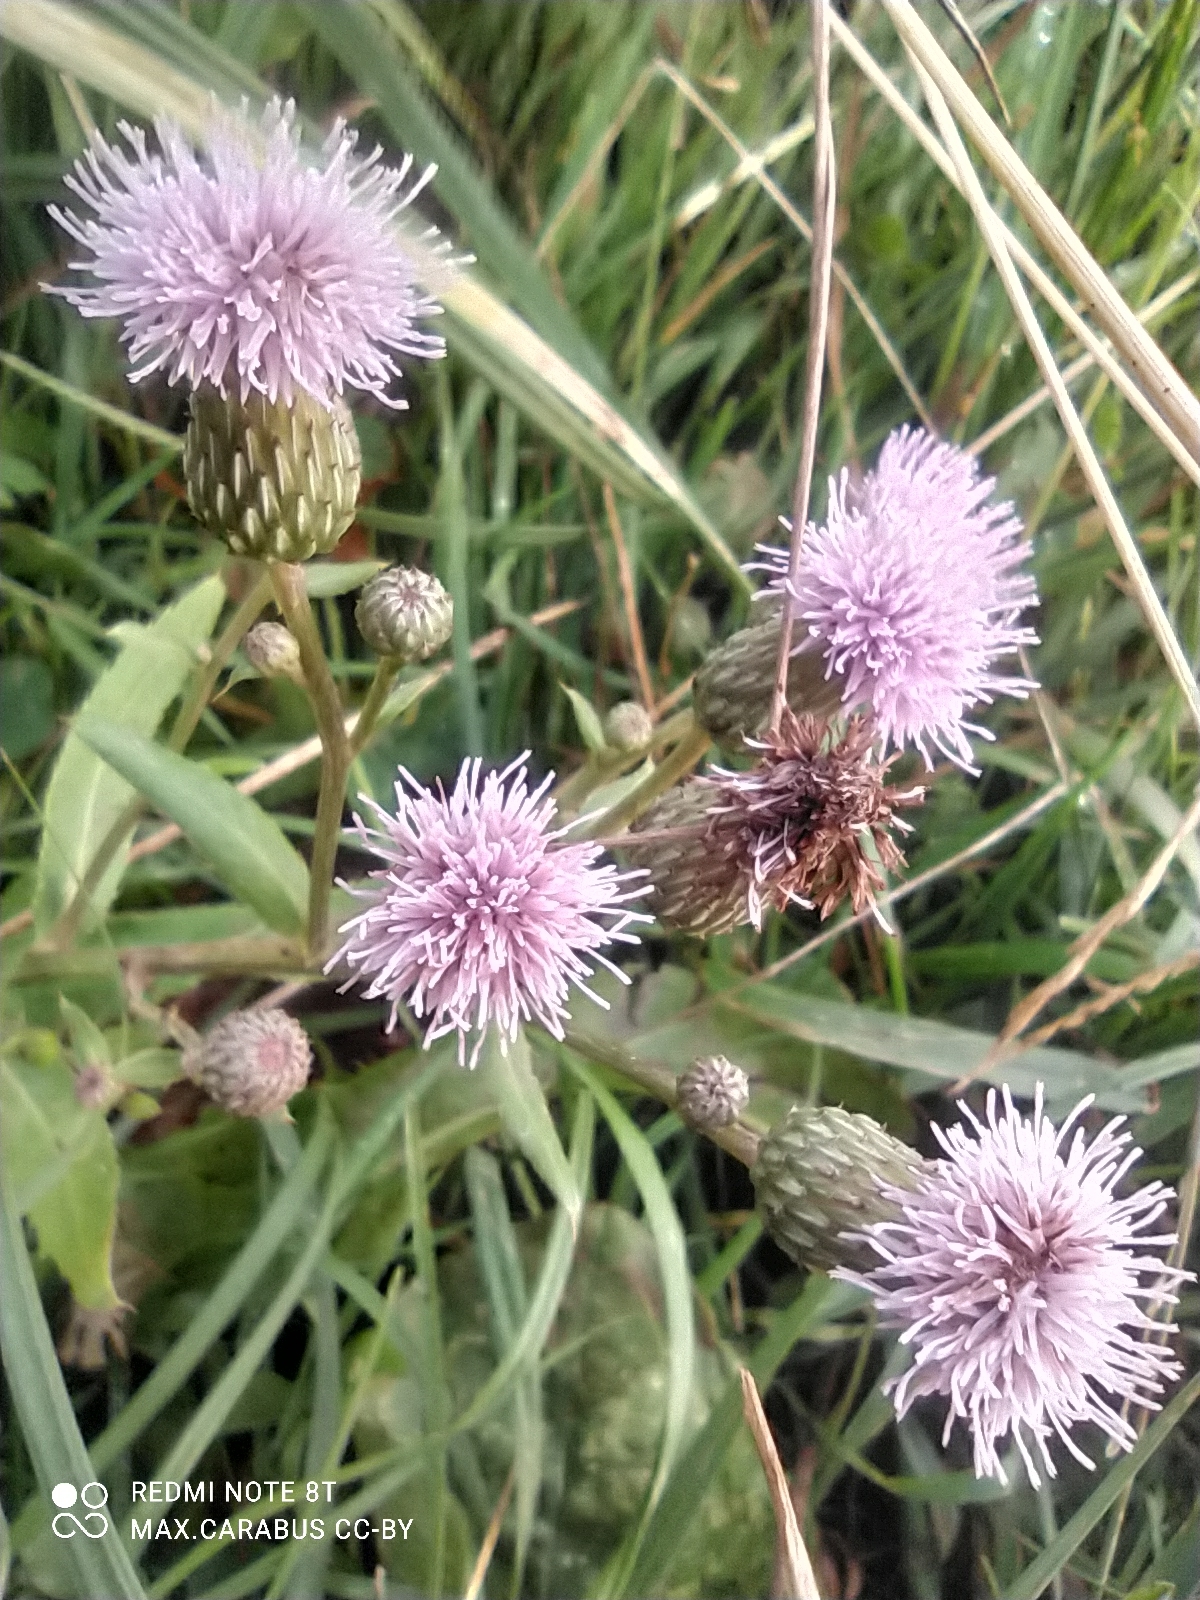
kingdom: Plantae
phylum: Tracheophyta
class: Magnoliopsida
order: Asterales
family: Asteraceae
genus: Cirsium
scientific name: Cirsium arvense
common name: Creeping thistle
